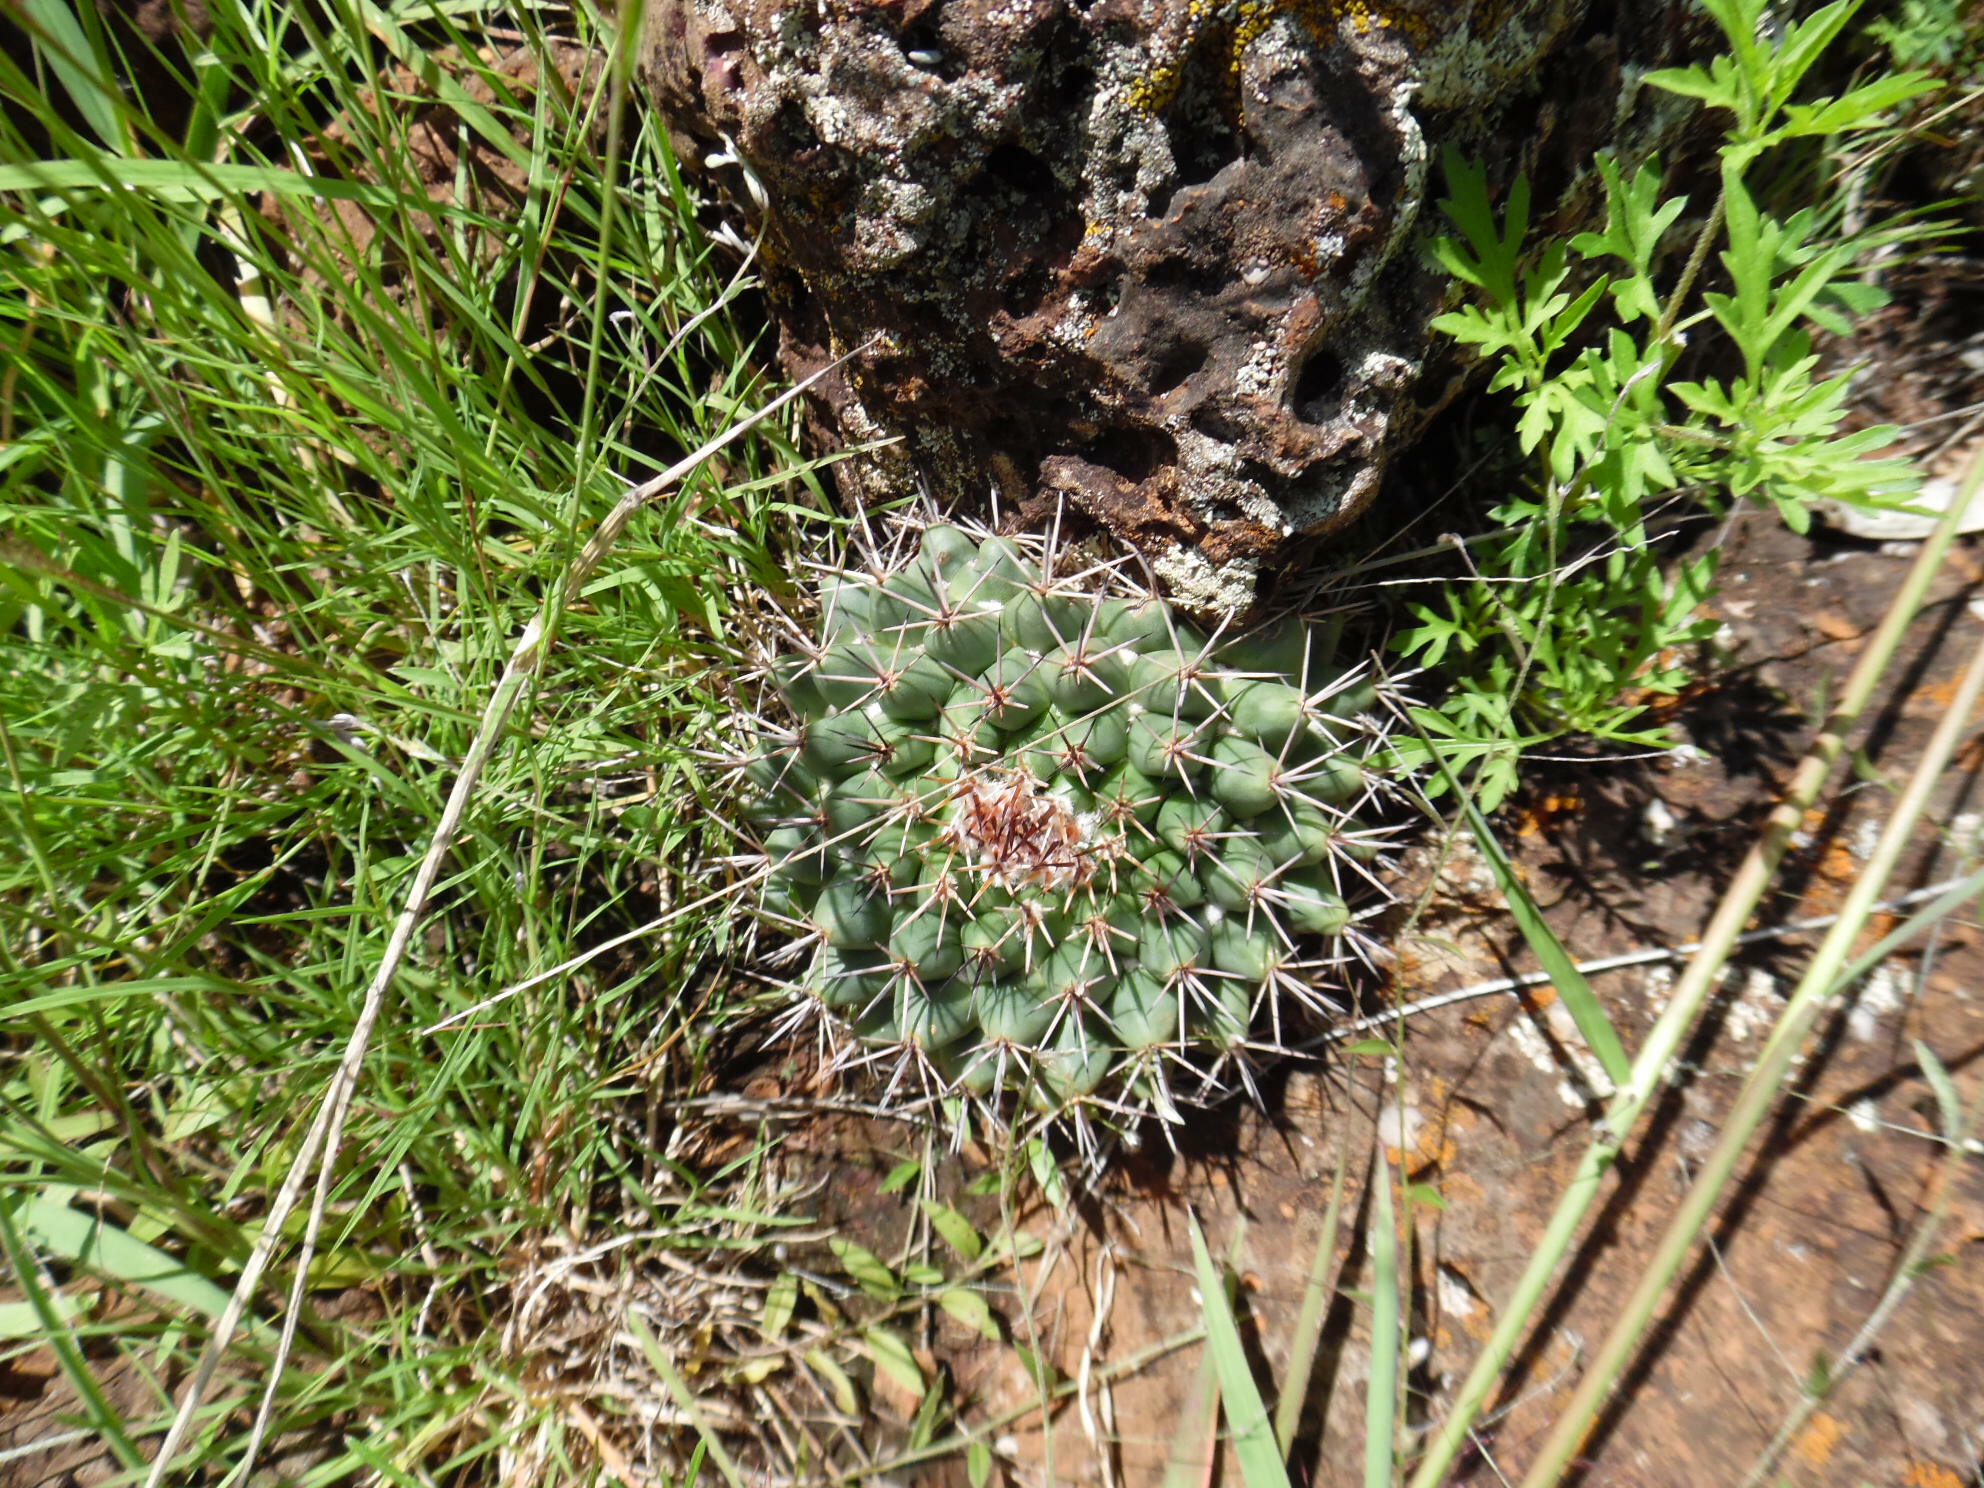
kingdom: Plantae
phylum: Tracheophyta
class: Magnoliopsida
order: Caryophyllales
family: Cactaceae
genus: Mammillaria
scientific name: Mammillaria wagneriana
